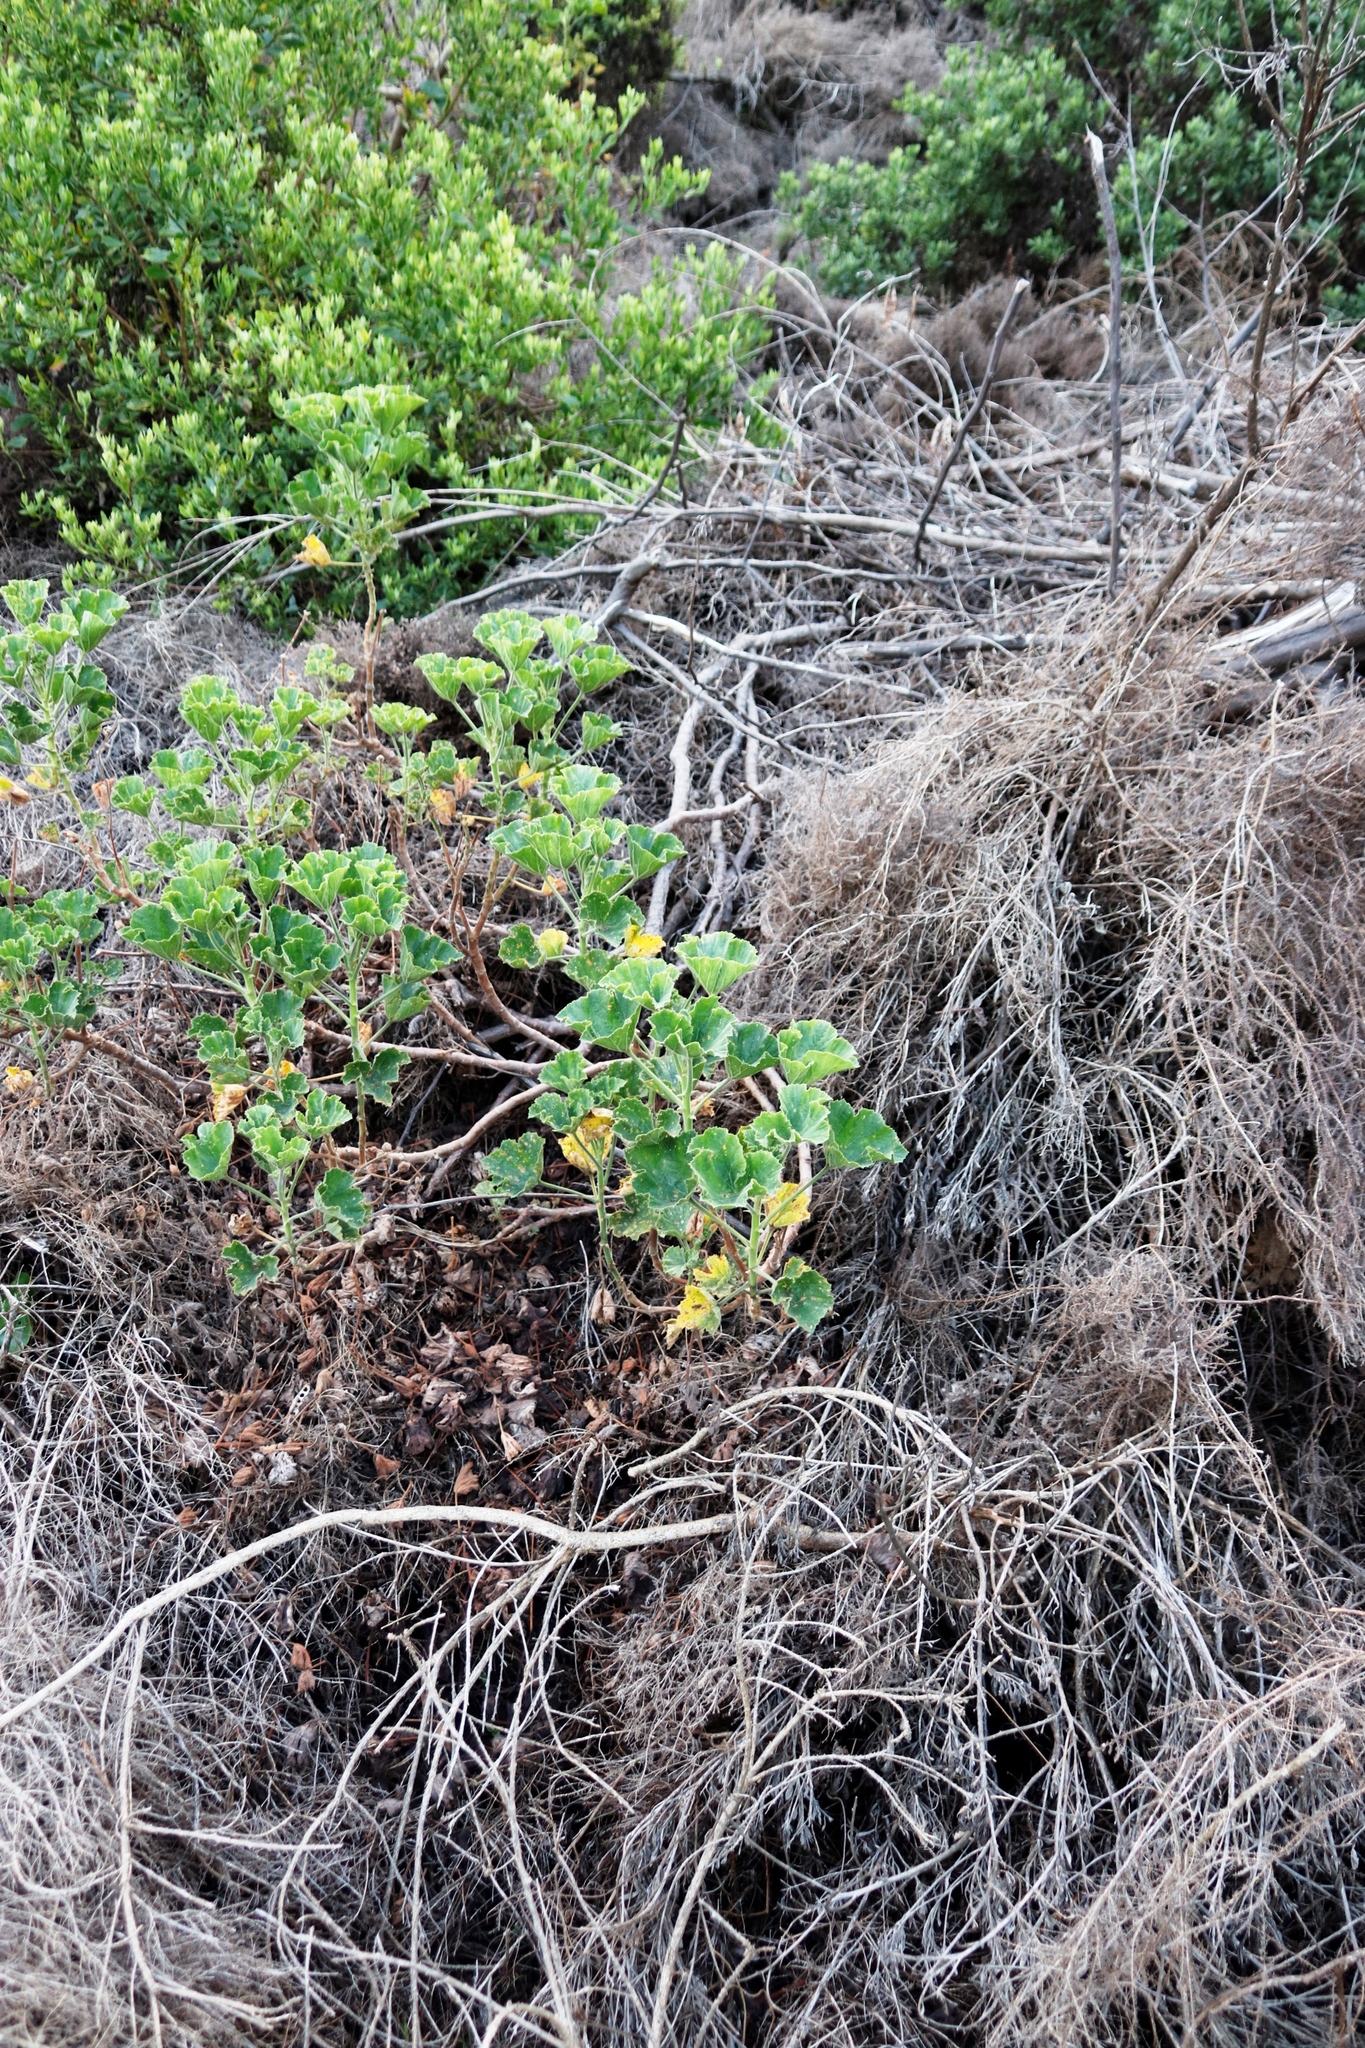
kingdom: Plantae
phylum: Tracheophyta
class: Magnoliopsida
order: Geraniales
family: Geraniaceae
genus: Pelargonium
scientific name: Pelargonium cucullatum
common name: Tree pelargonium
